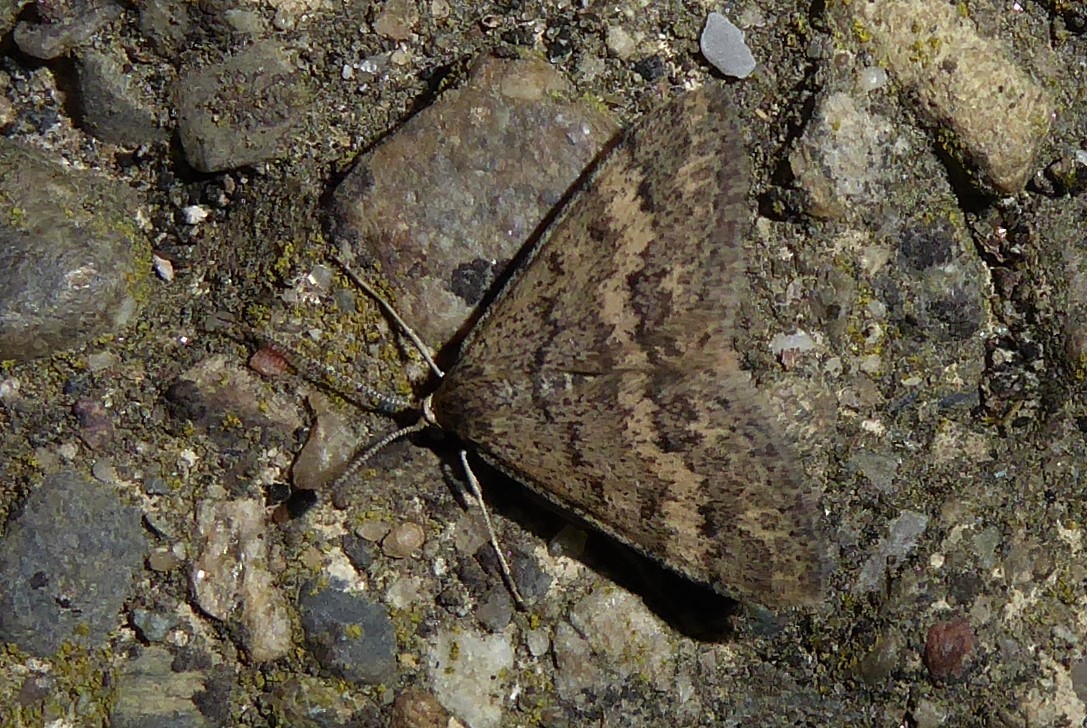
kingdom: Animalia
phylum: Arthropoda
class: Insecta
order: Lepidoptera
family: Geometridae
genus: Scopula
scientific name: Scopula rubraria
